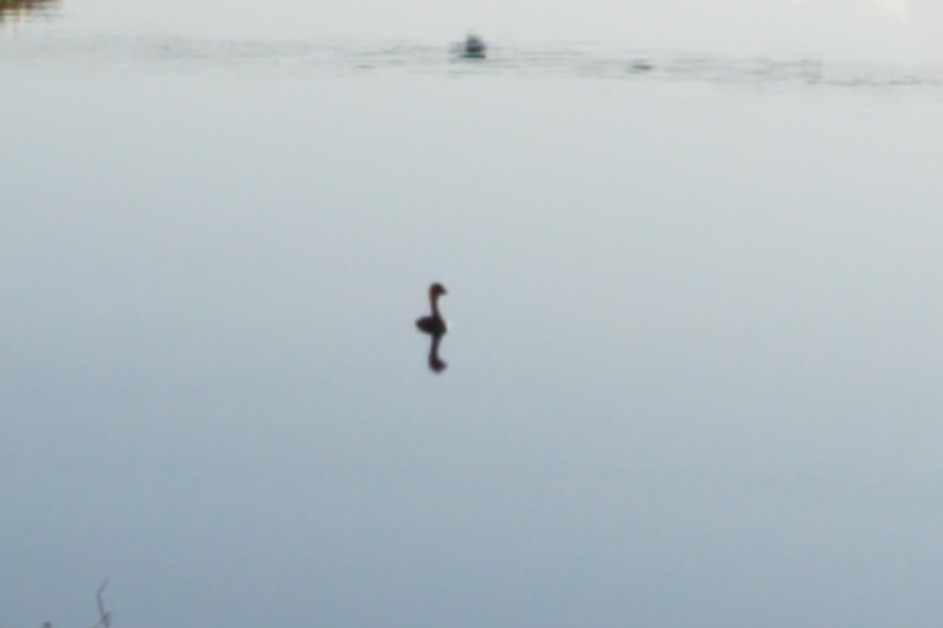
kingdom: Animalia
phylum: Chordata
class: Aves
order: Podicipediformes
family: Podicipedidae
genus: Podilymbus
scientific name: Podilymbus podiceps
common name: Pied-billed grebe
